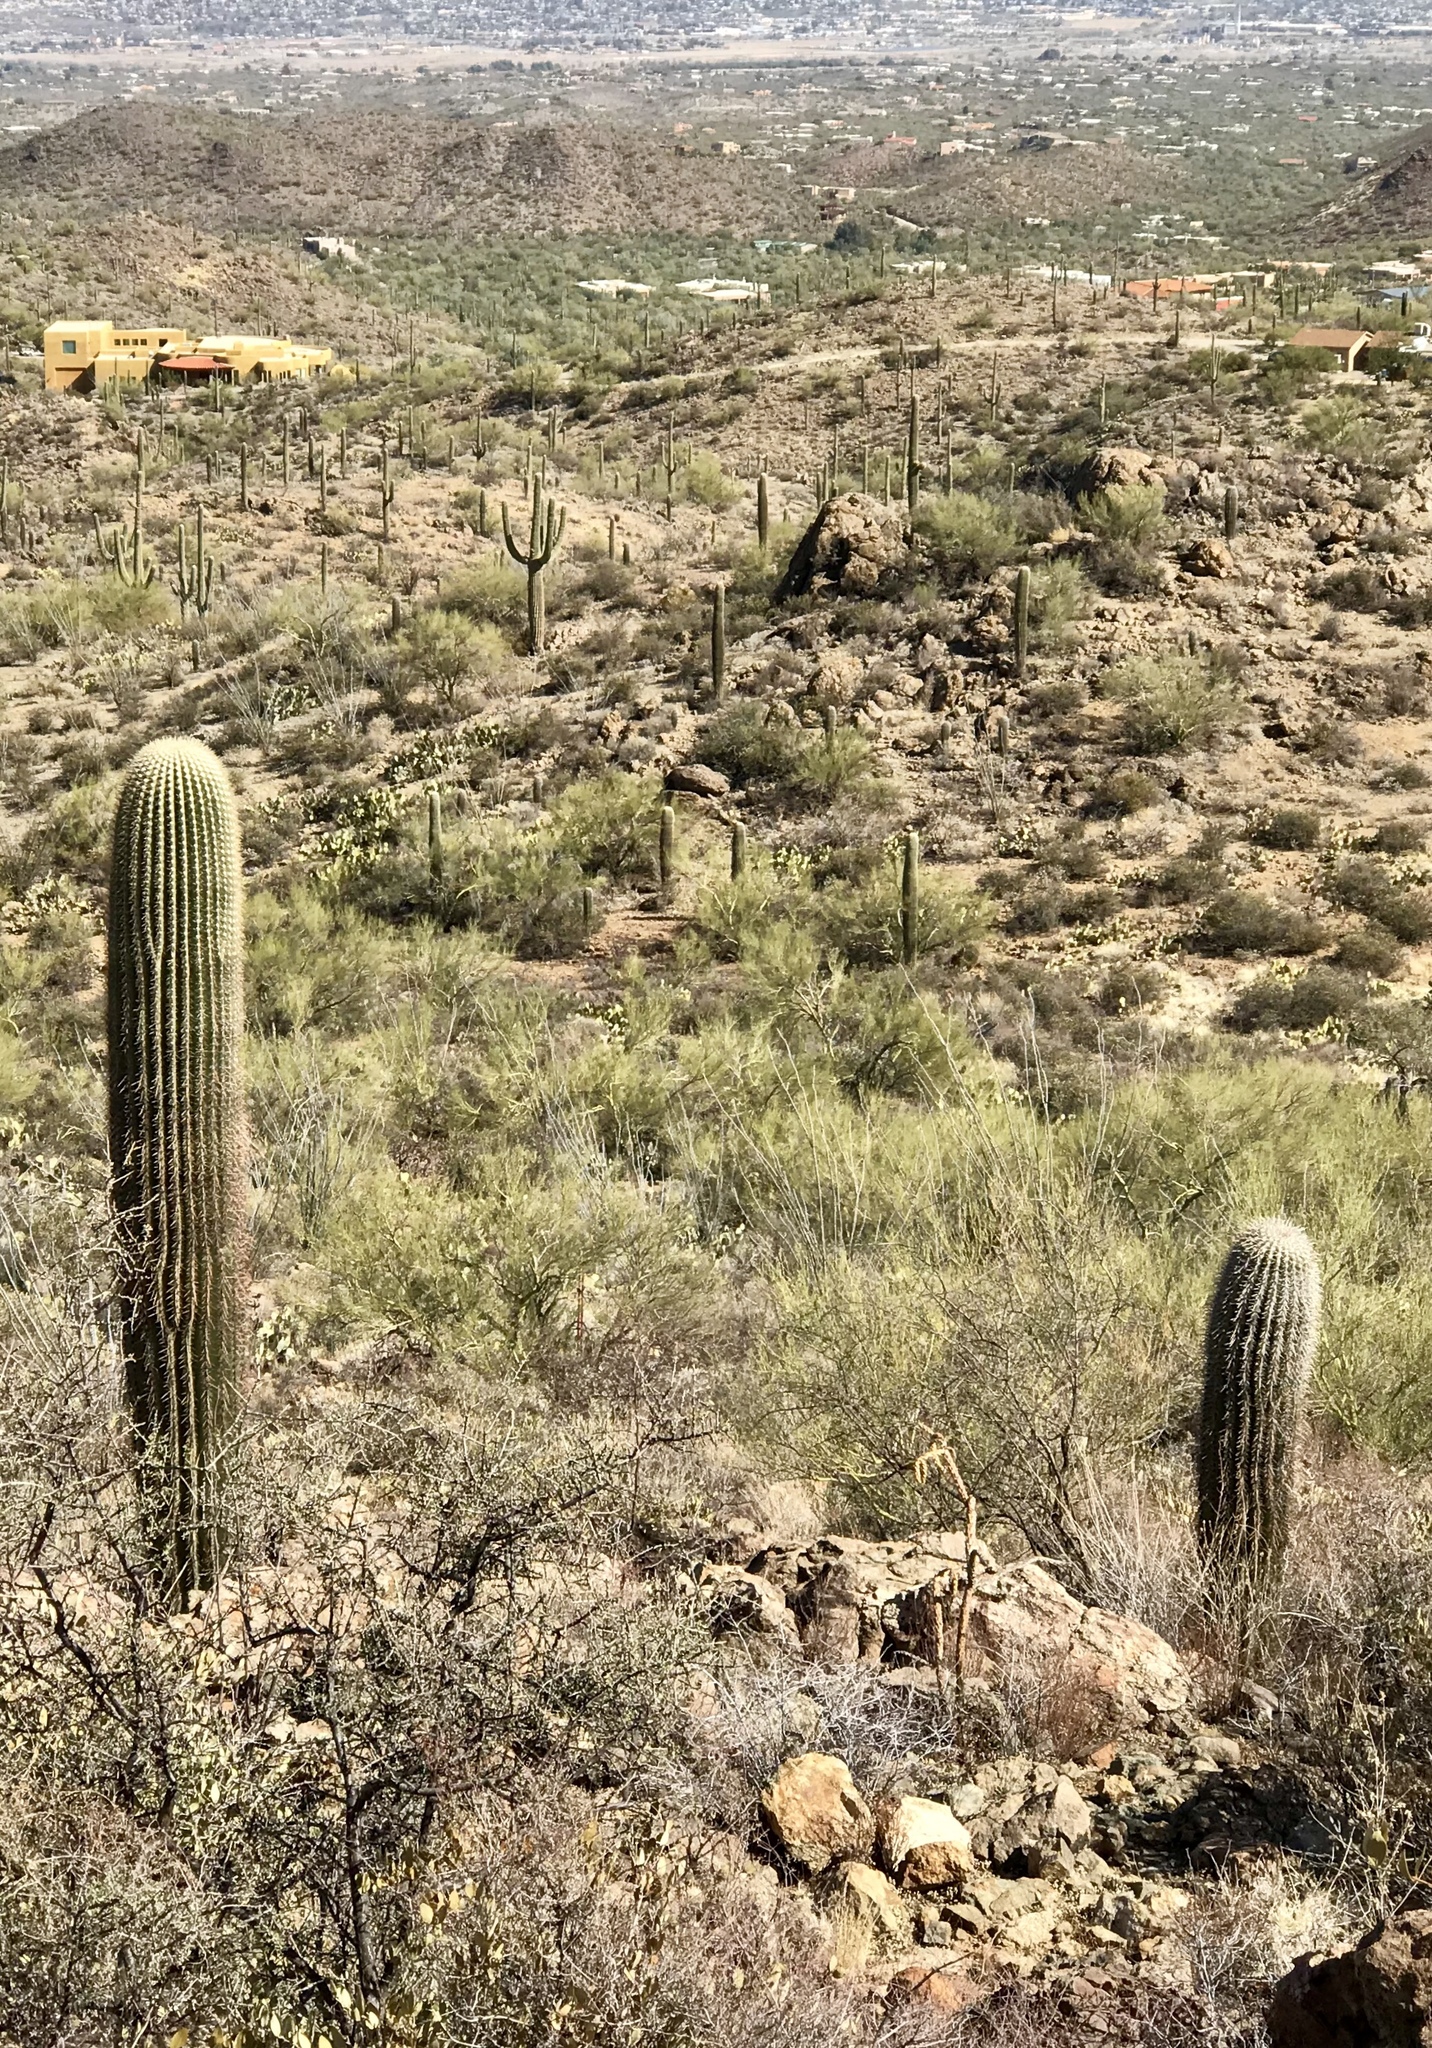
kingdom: Plantae
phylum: Tracheophyta
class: Magnoliopsida
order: Caryophyllales
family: Cactaceae
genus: Carnegiea
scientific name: Carnegiea gigantea
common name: Saguaro
